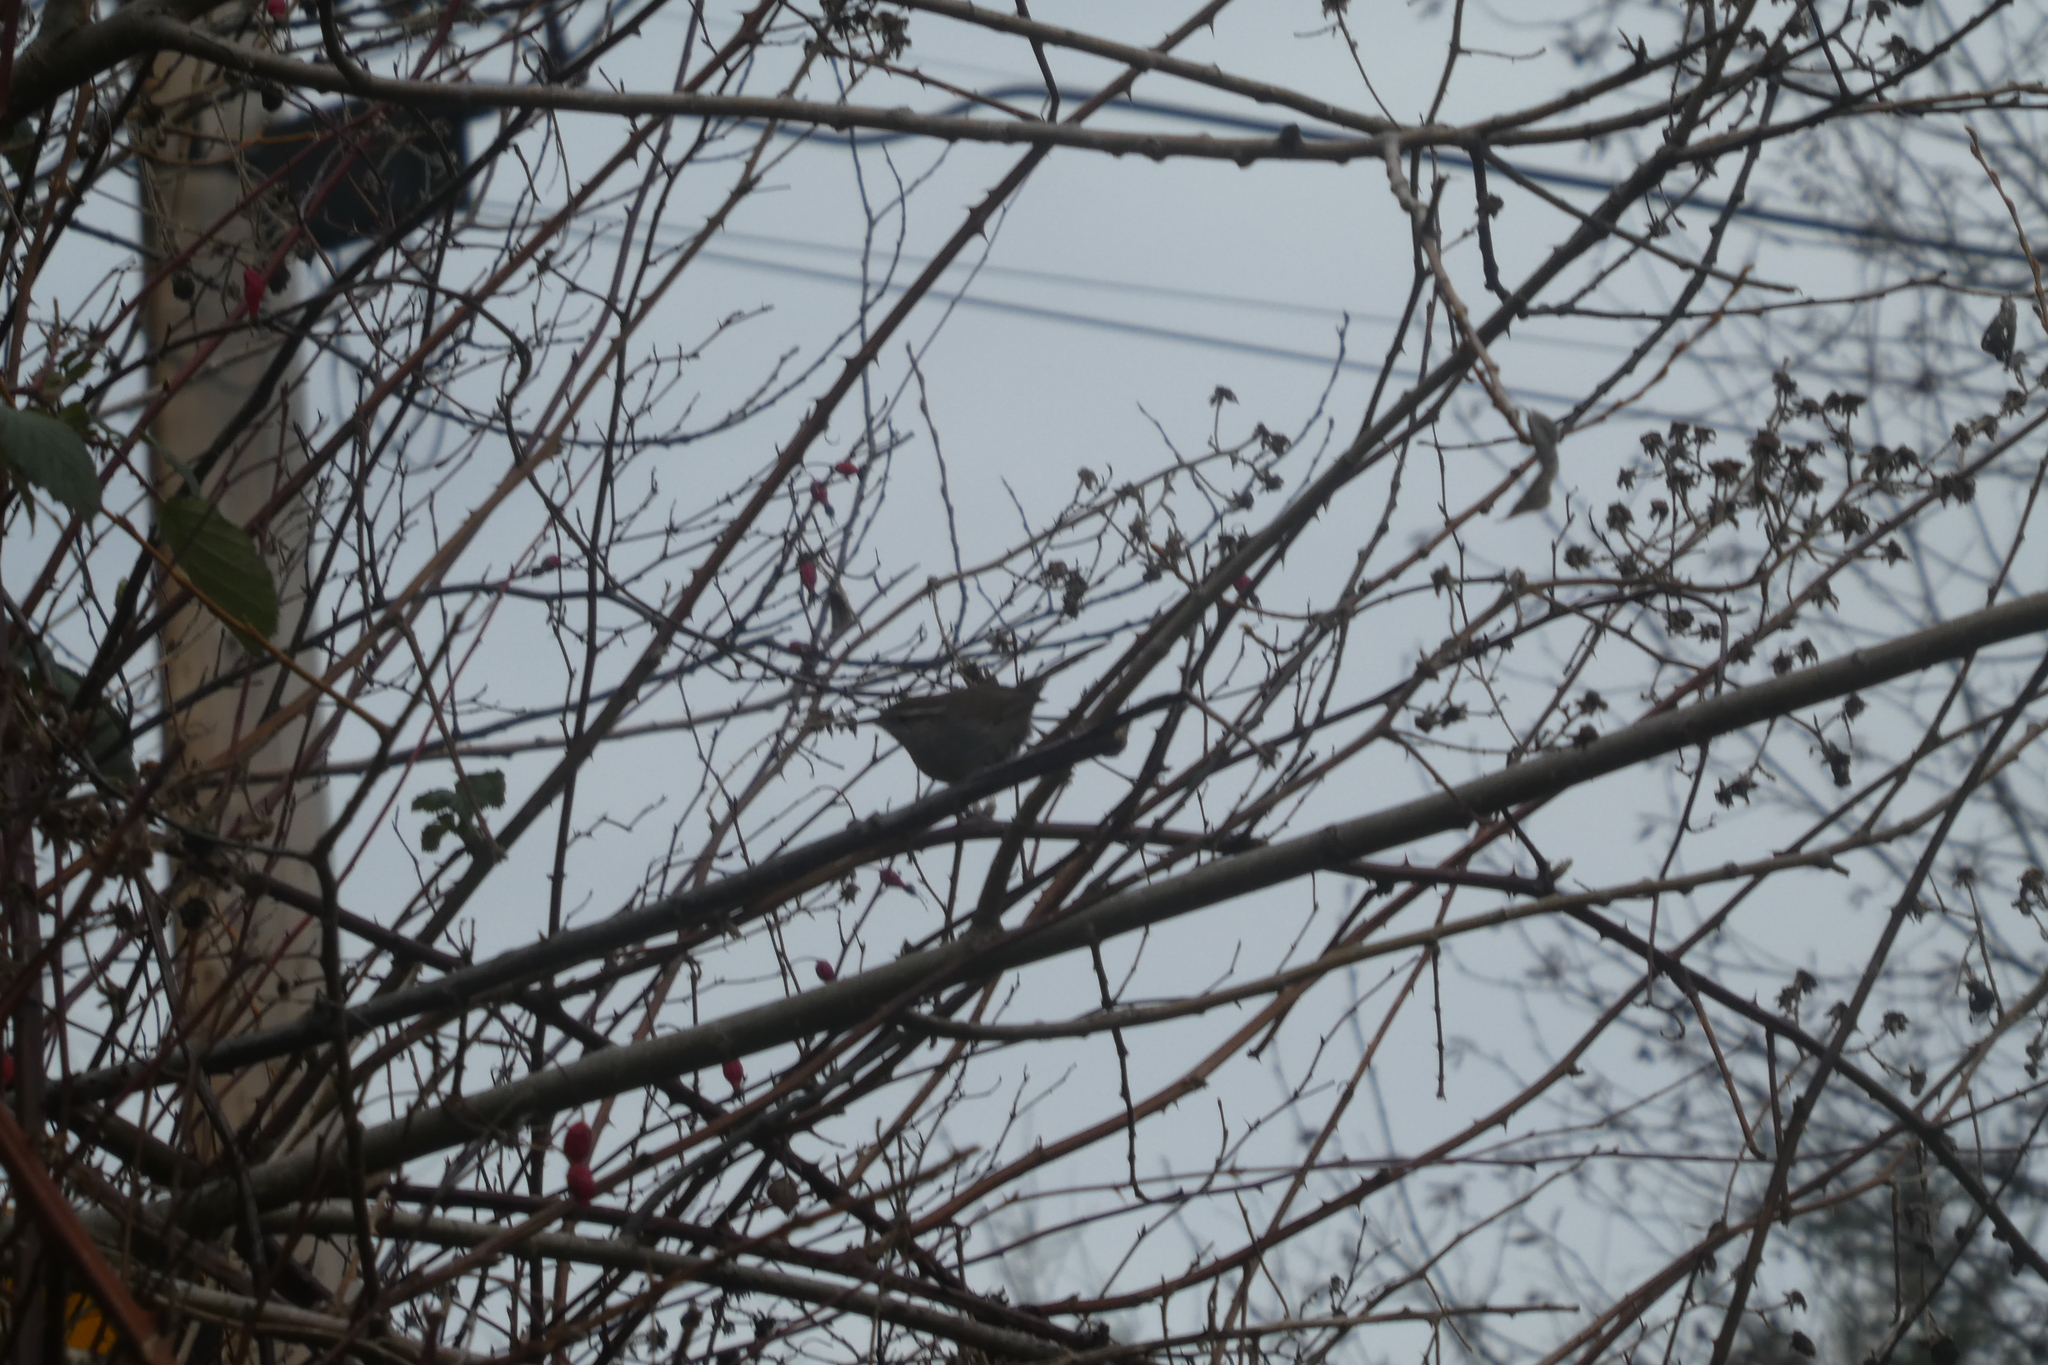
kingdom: Animalia
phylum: Chordata
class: Aves
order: Passeriformes
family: Troglodytidae
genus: Thryomanes
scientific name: Thryomanes bewickii
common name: Bewick's wren
